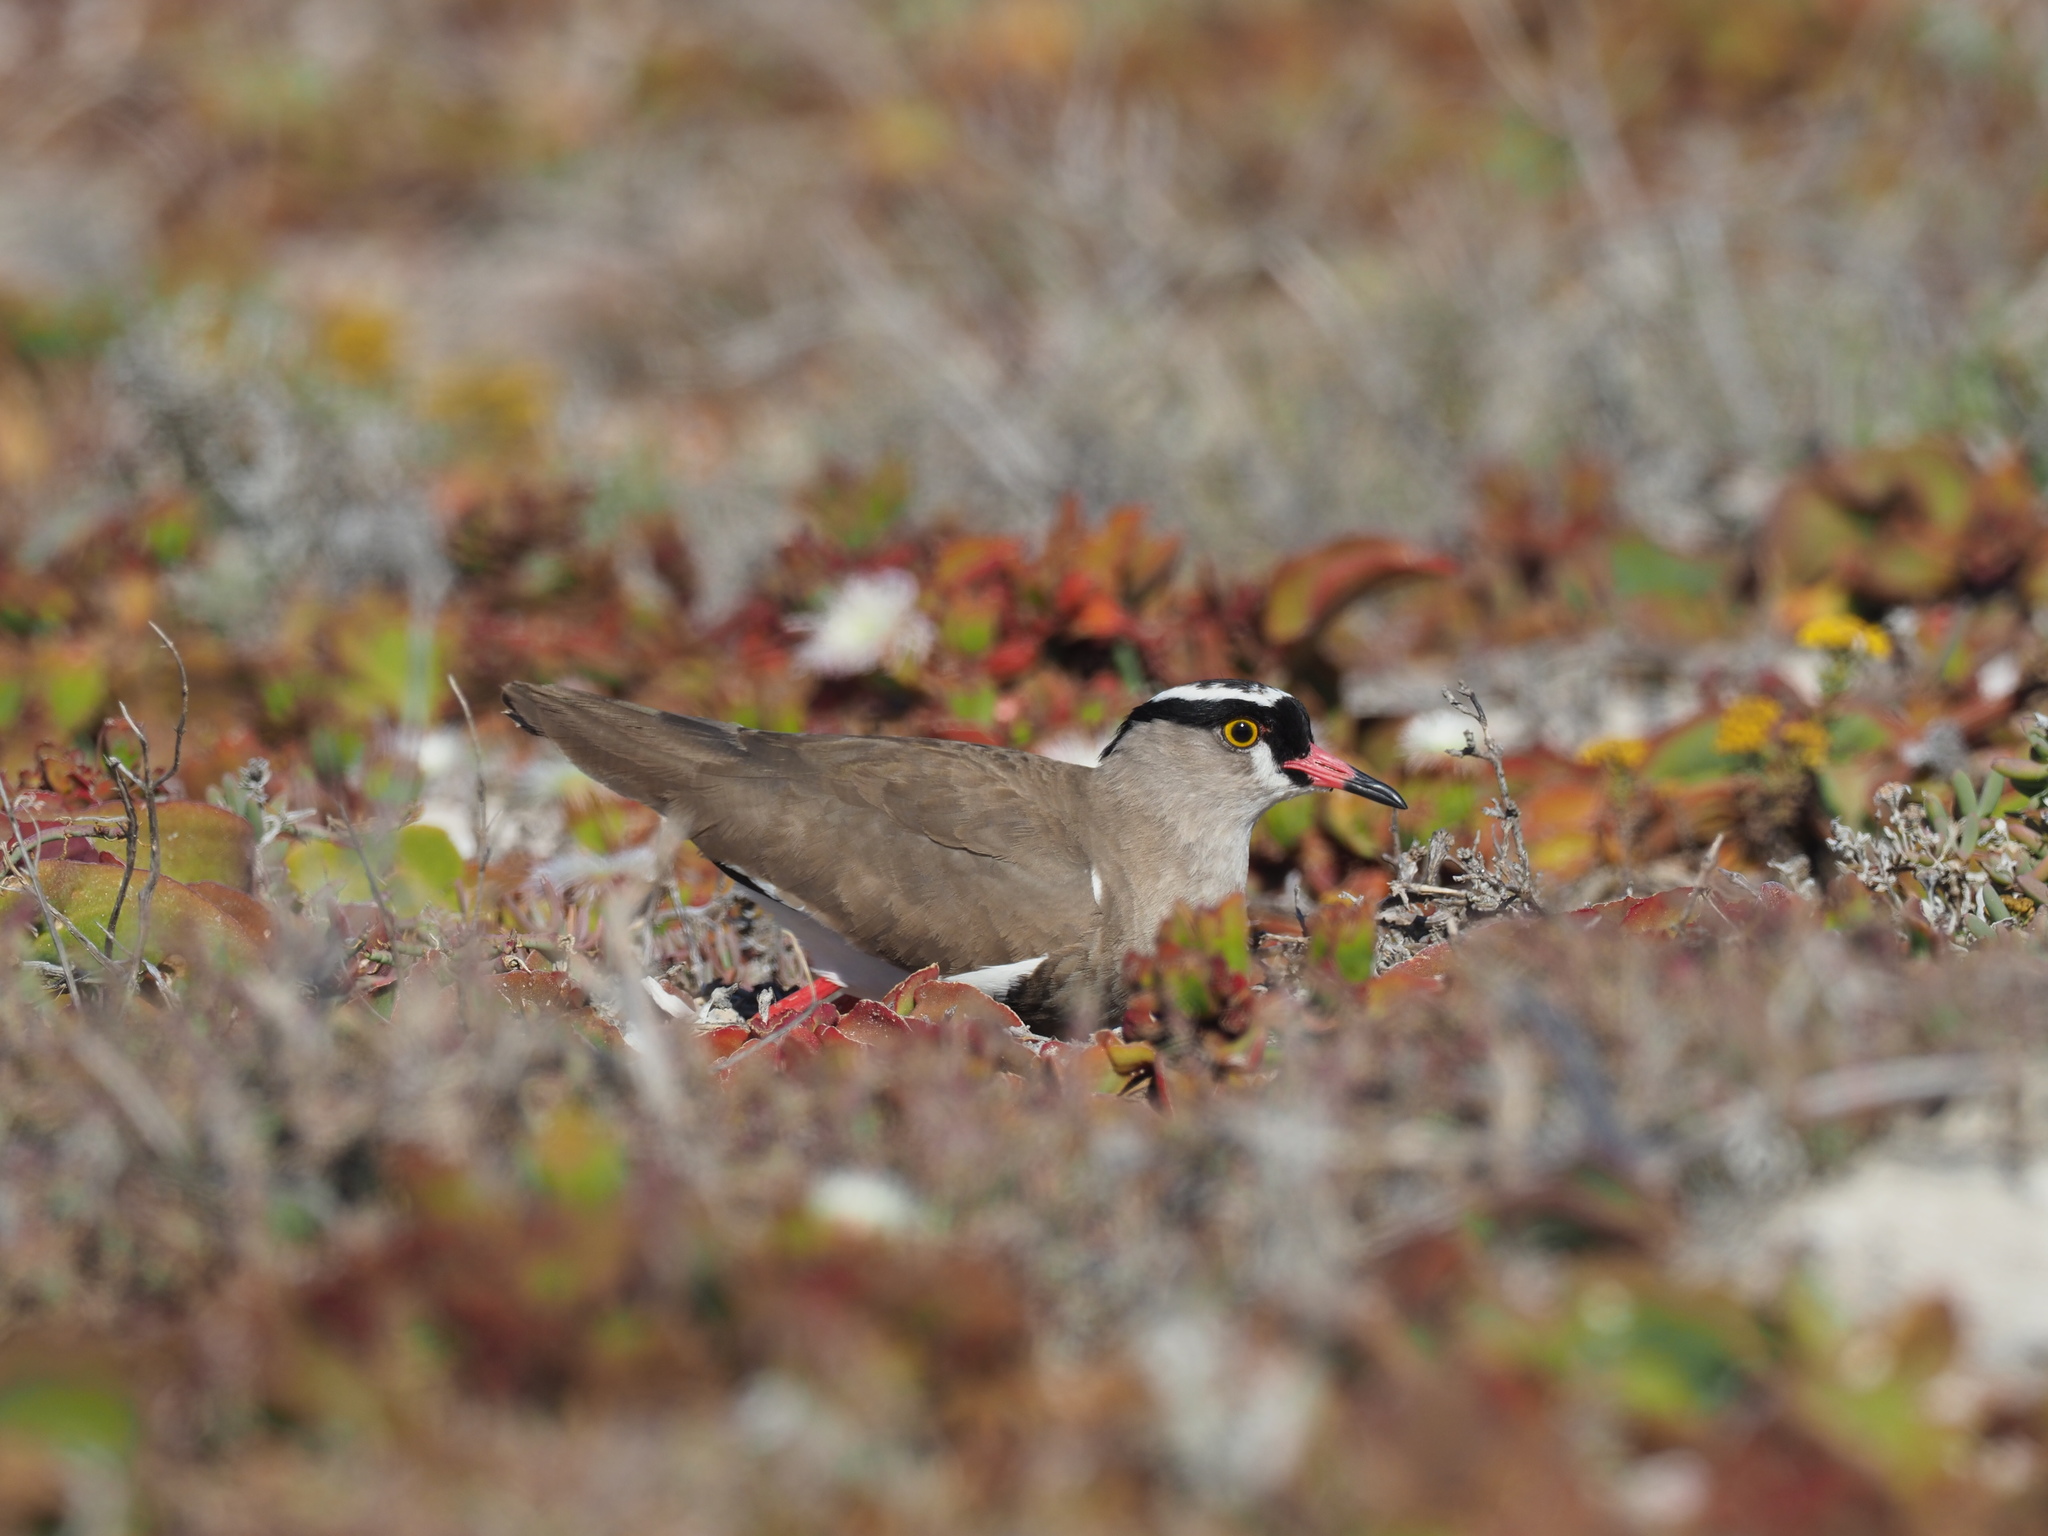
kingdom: Animalia
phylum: Chordata
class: Aves
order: Charadriiformes
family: Charadriidae
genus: Vanellus
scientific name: Vanellus coronatus
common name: Crowned lapwing
